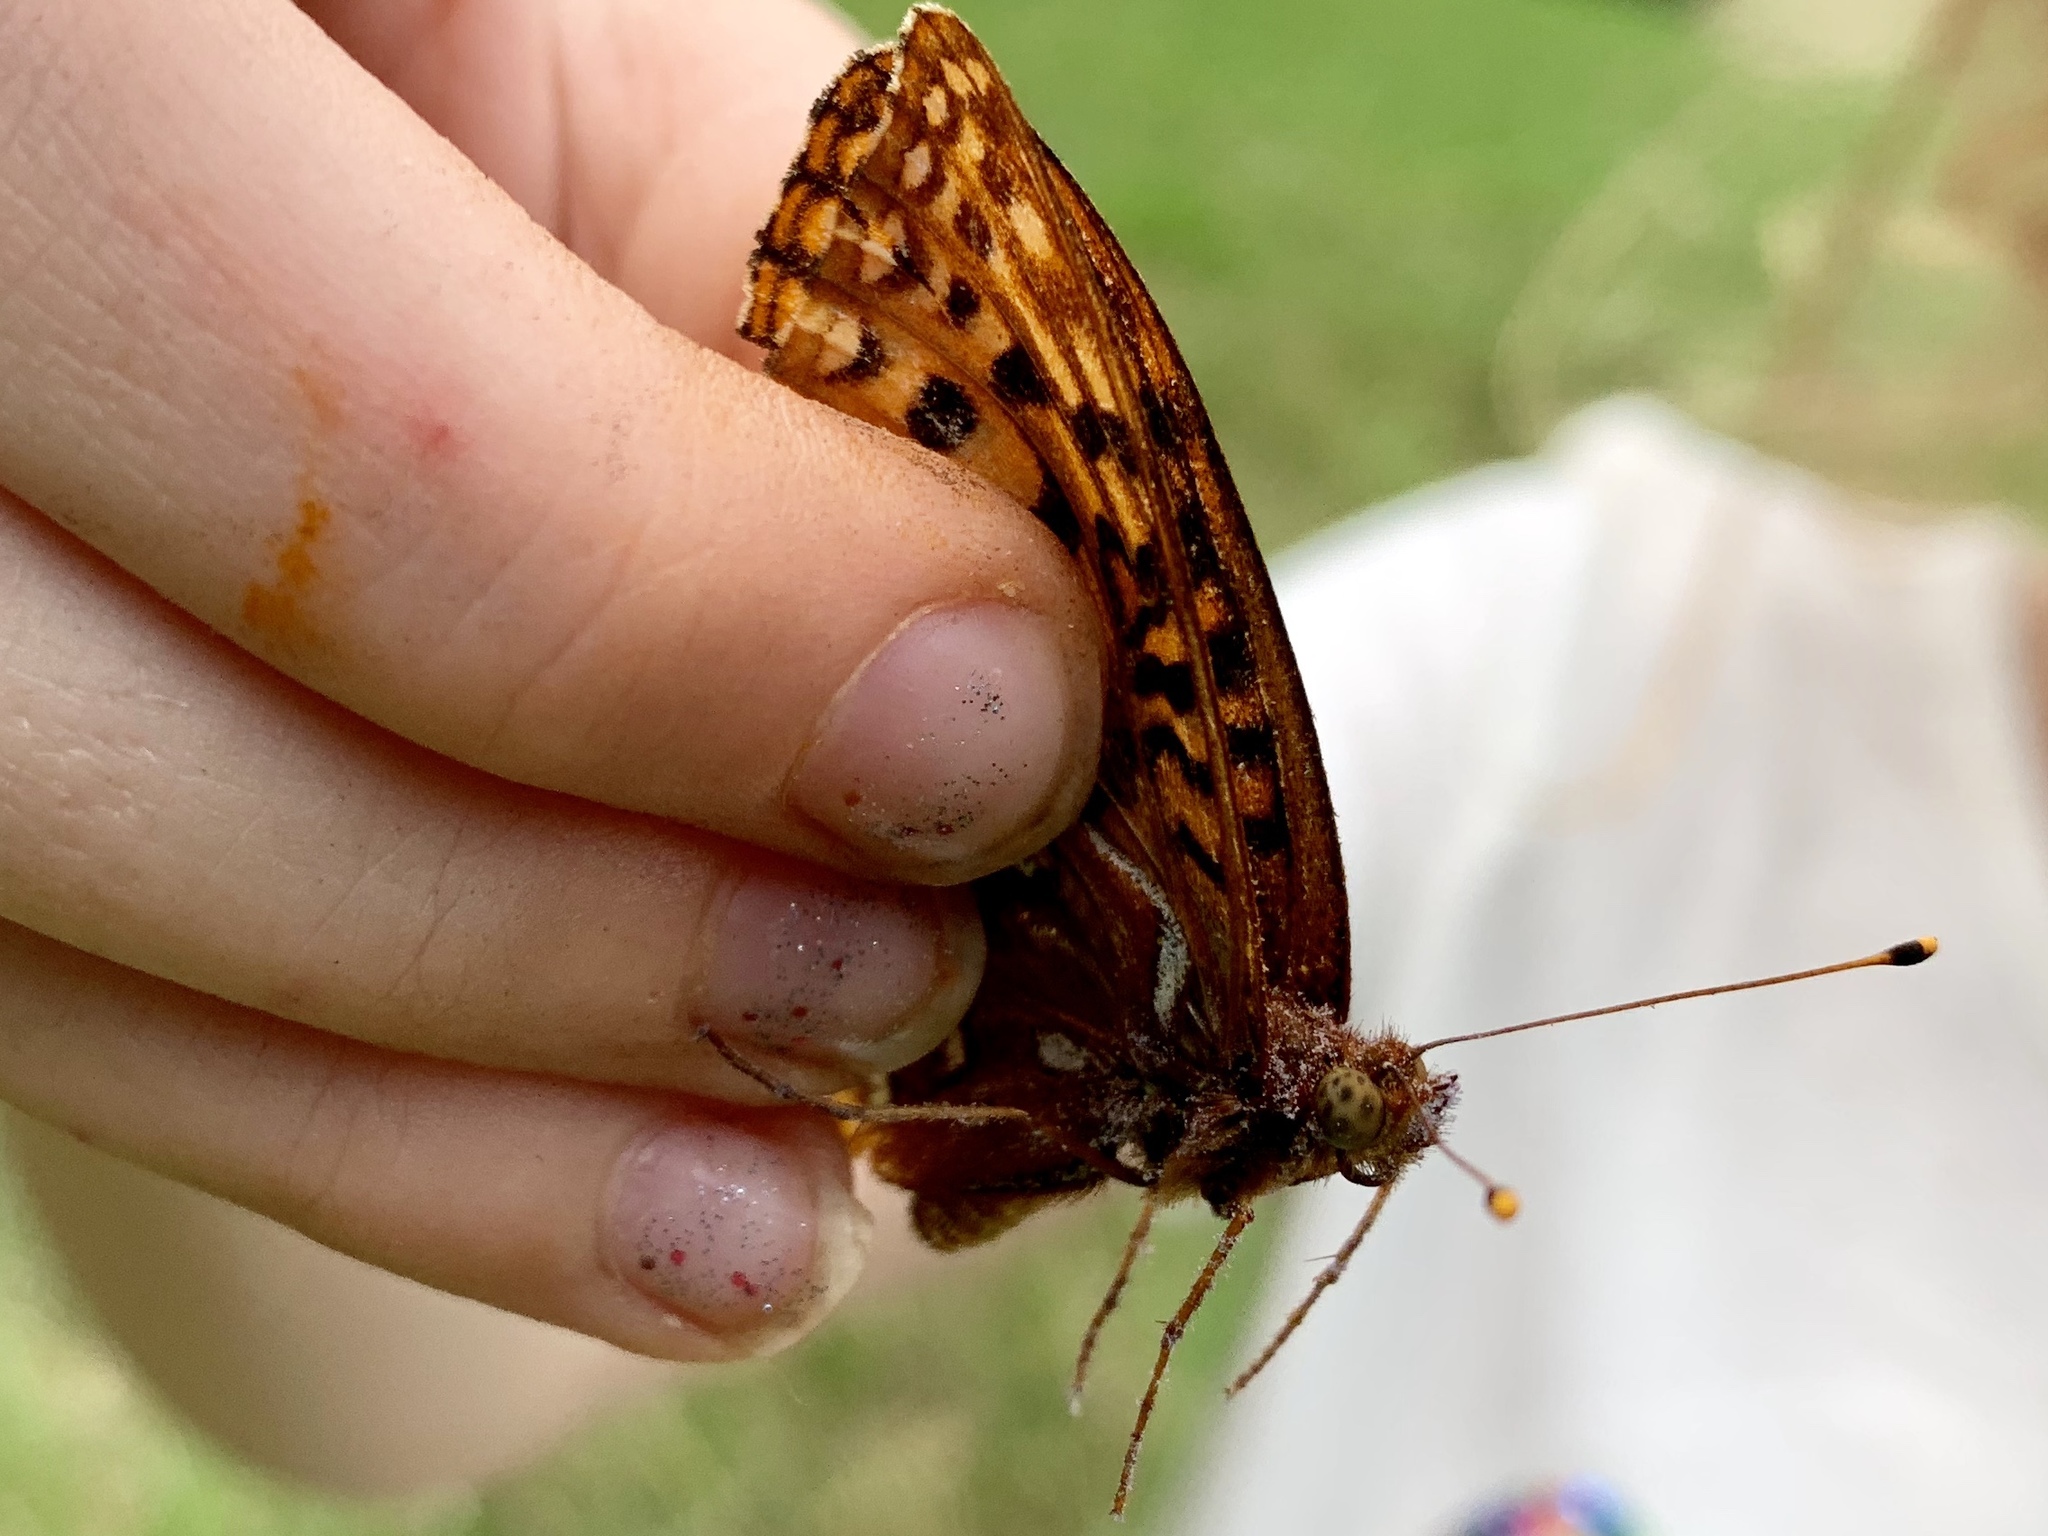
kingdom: Animalia
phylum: Arthropoda
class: Insecta
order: Lepidoptera
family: Nymphalidae
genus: Speyeria
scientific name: Speyeria atlantis
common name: Atlantis fritillary
